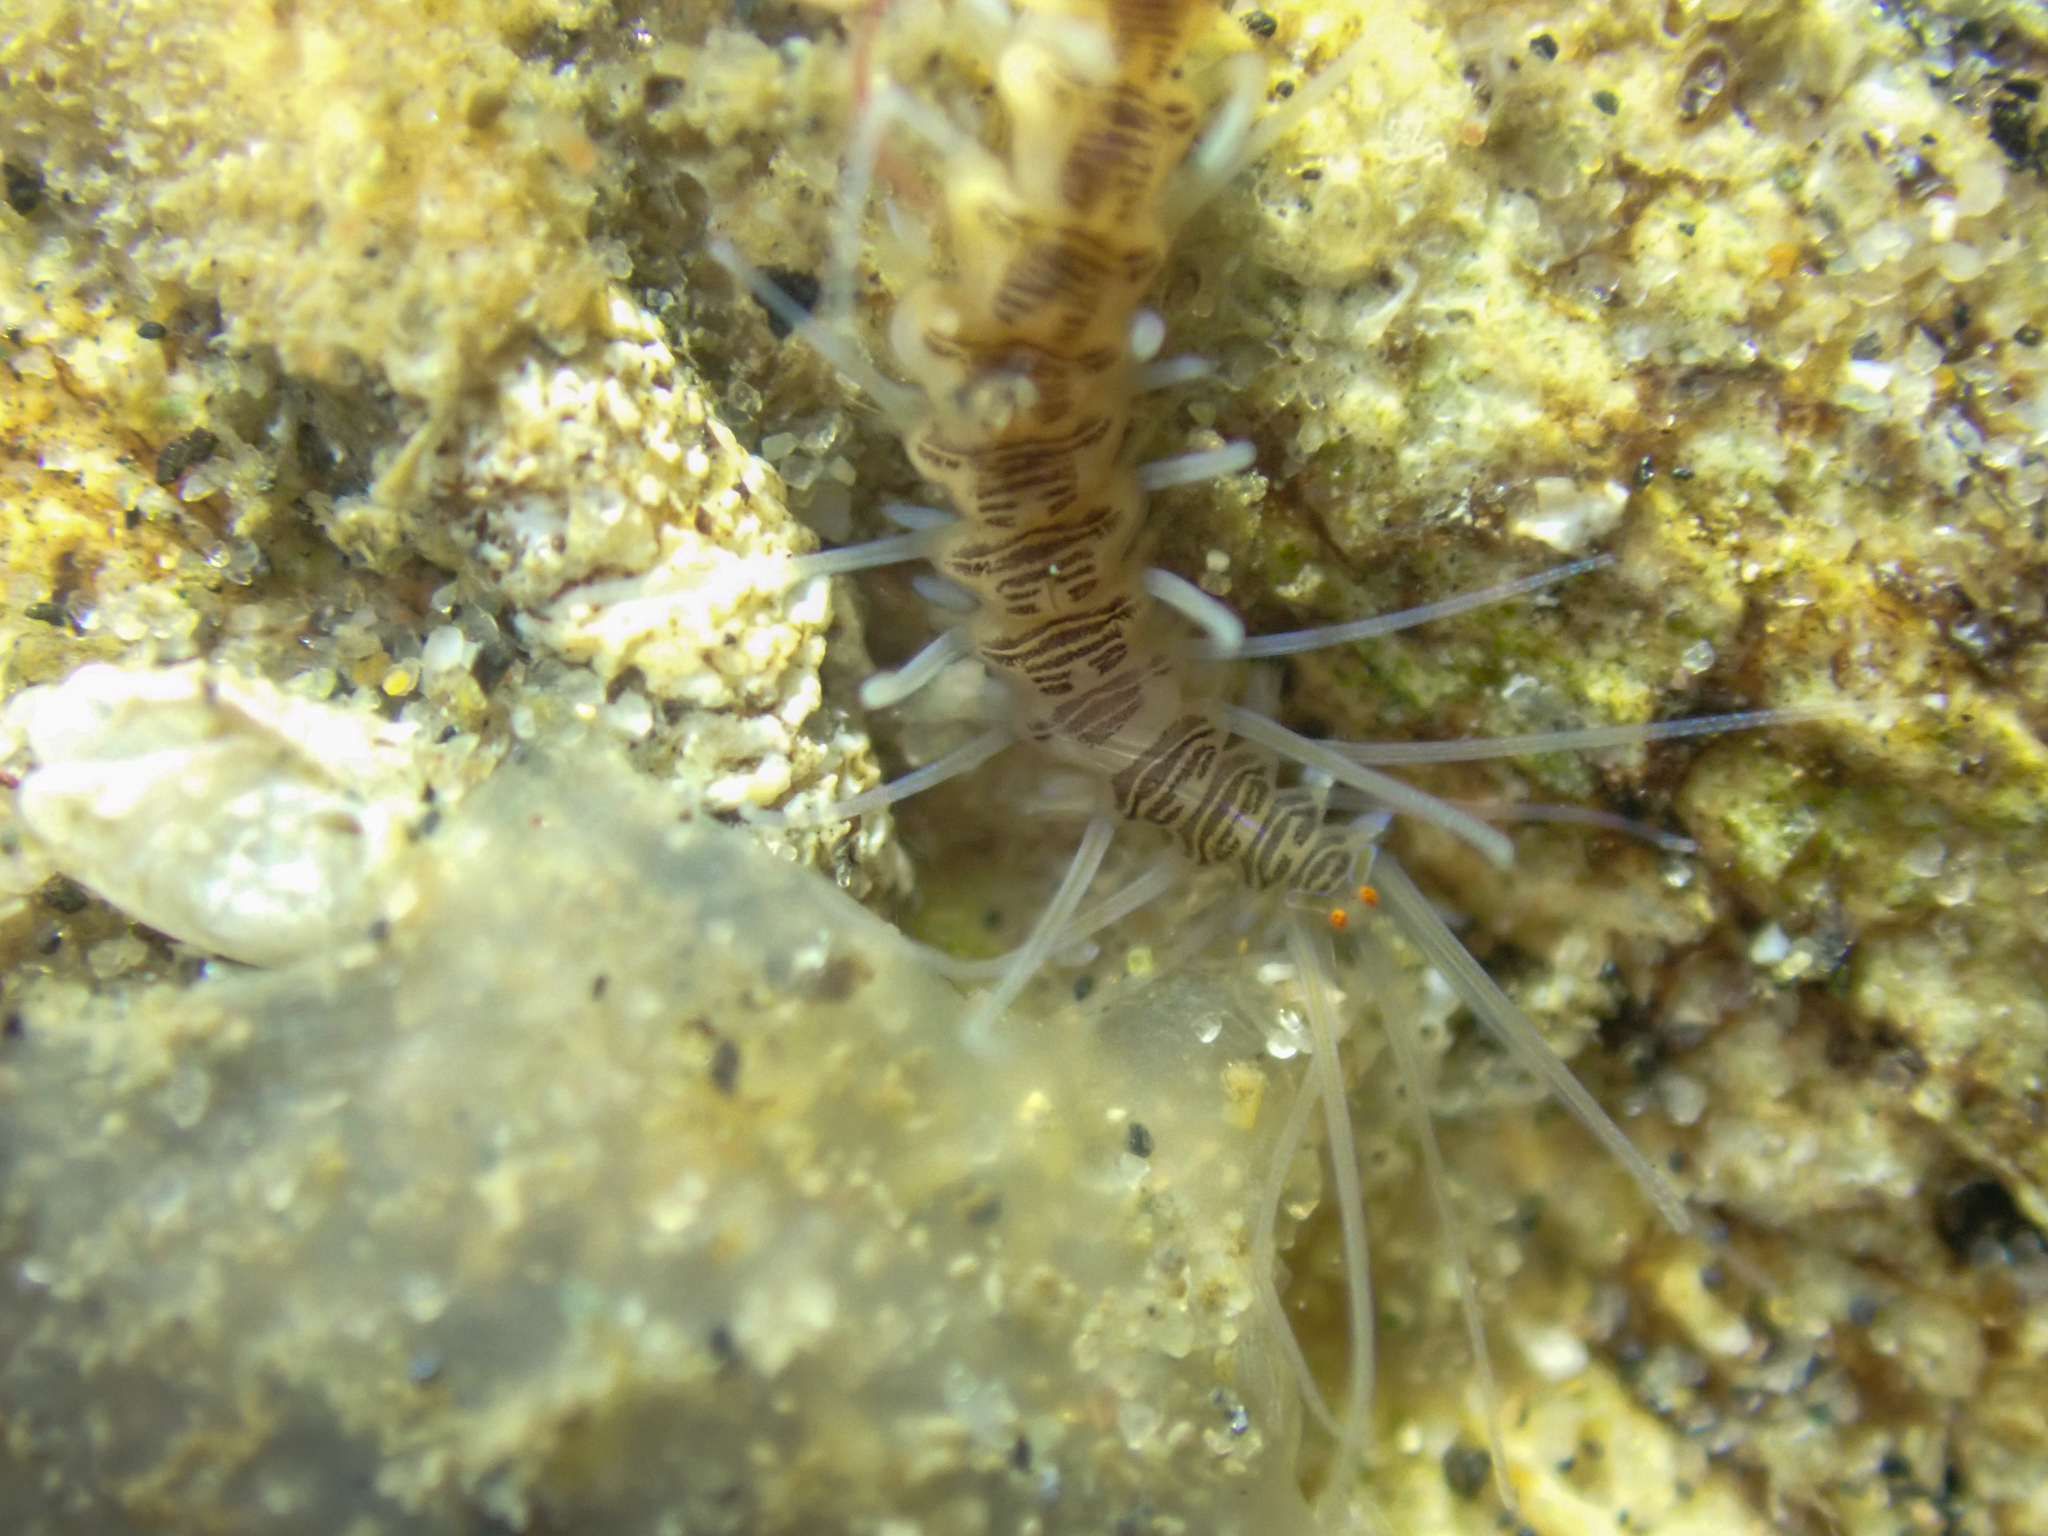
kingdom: Animalia
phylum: Annelida
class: Polychaeta
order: Phyllodocida
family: Syllidae
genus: Amblyosyllis
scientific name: Amblyosyllis hectori
